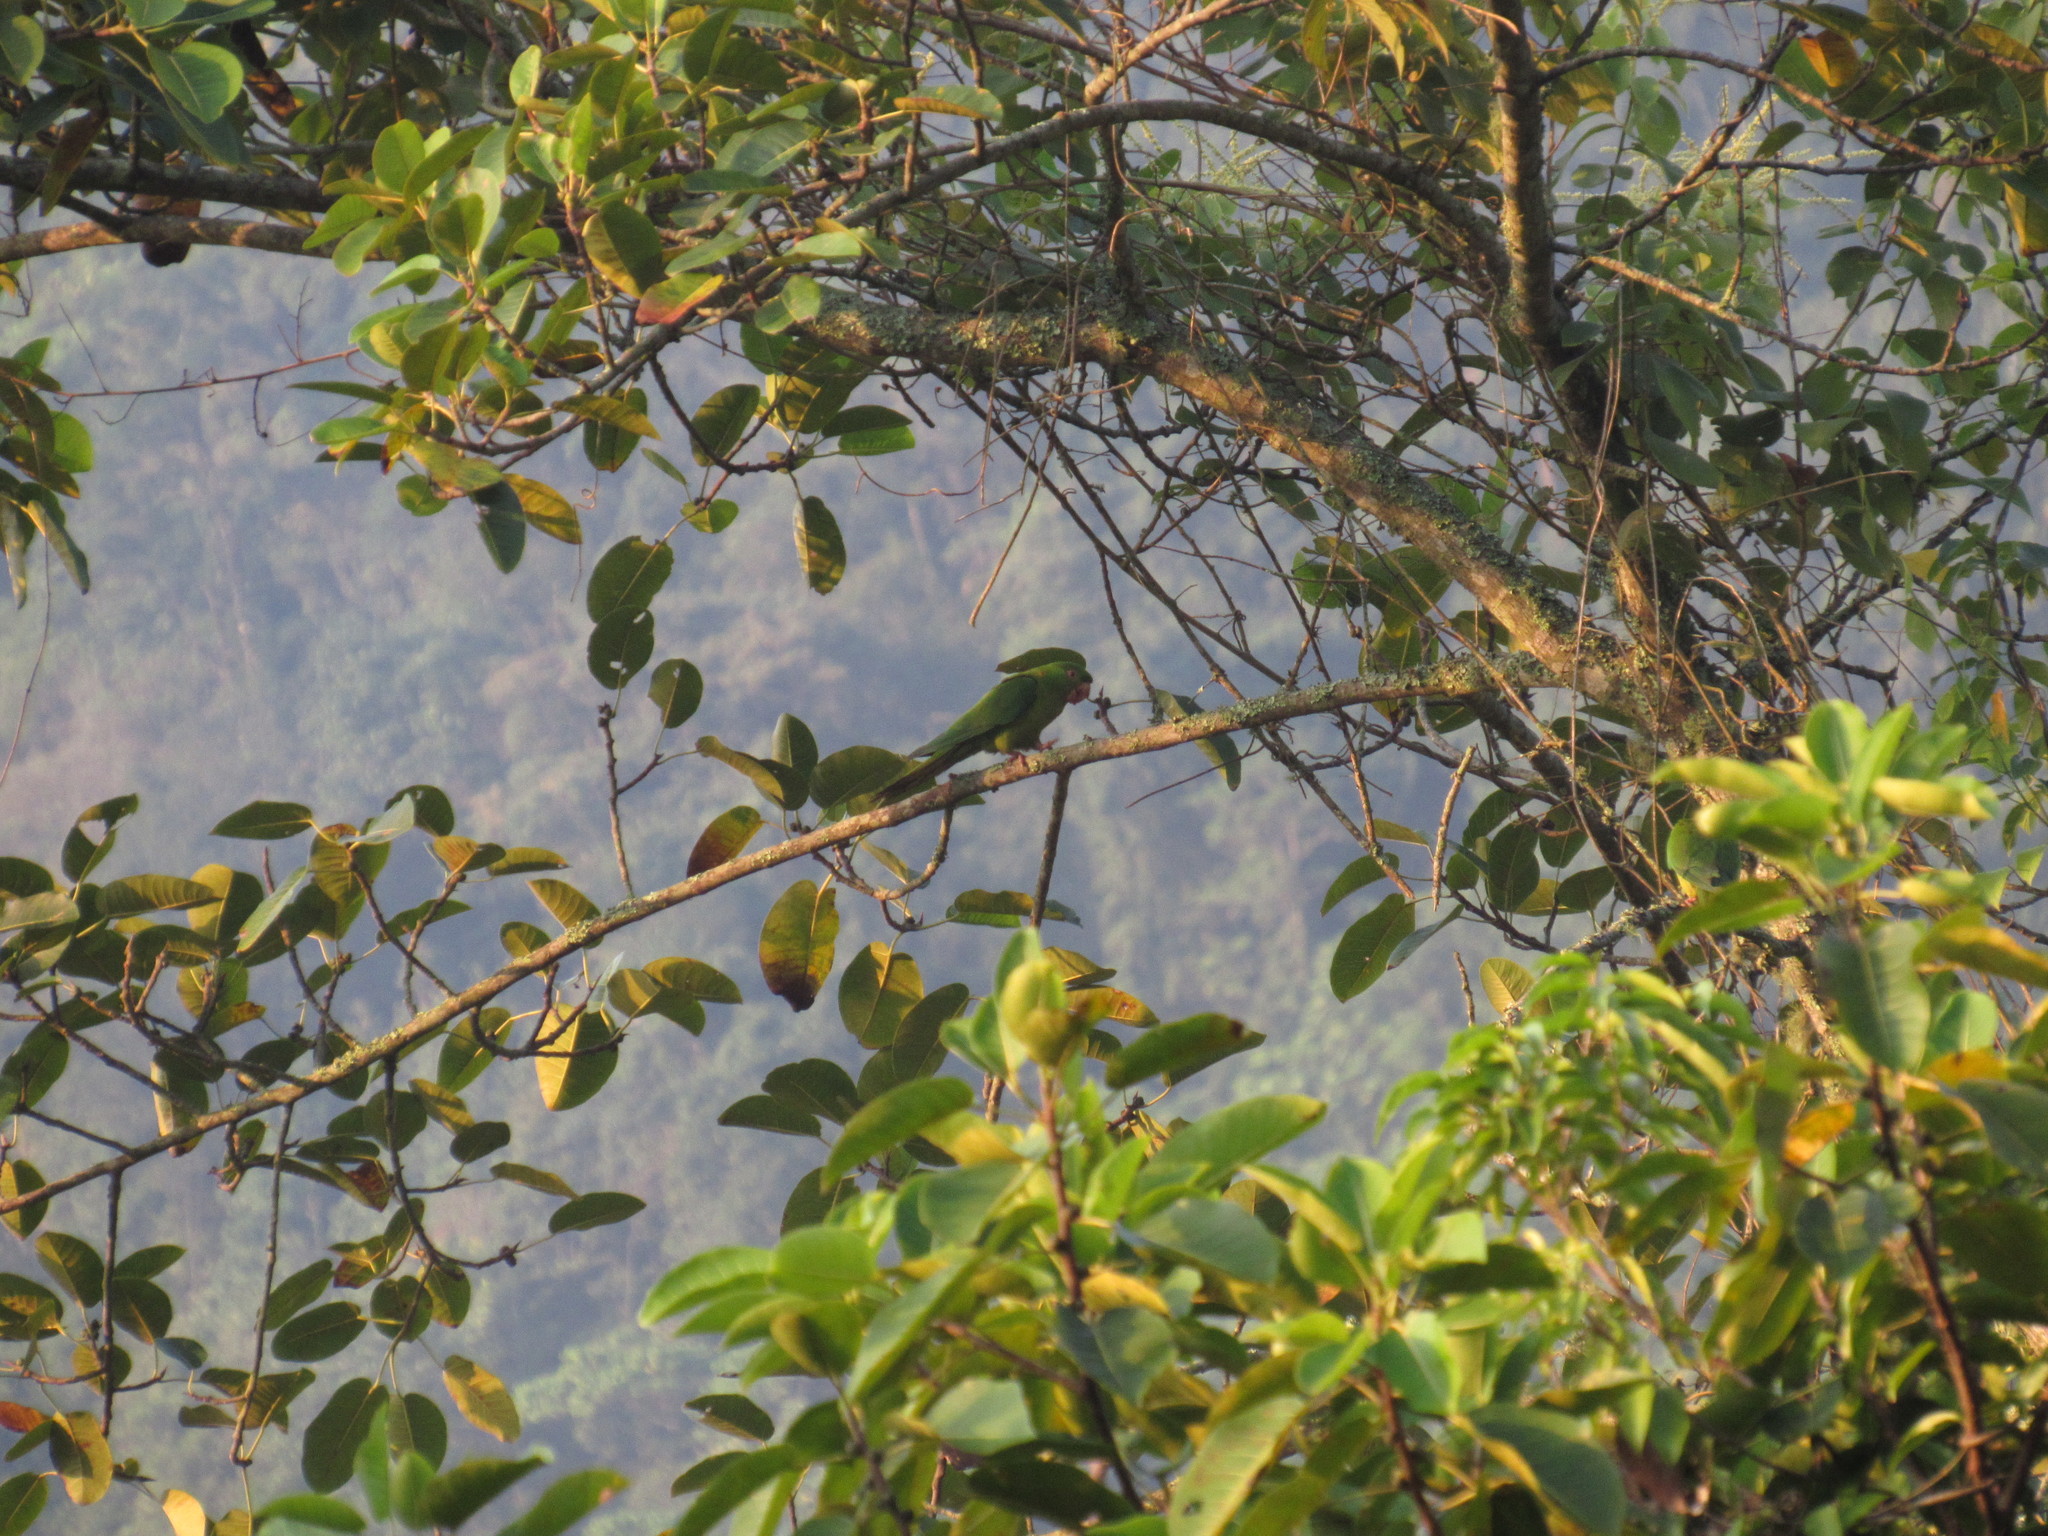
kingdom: Animalia
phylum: Chordata
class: Aves
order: Psittaciformes
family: Psittacidae
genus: Aratinga
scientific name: Aratinga holochlora
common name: Green parakeet
